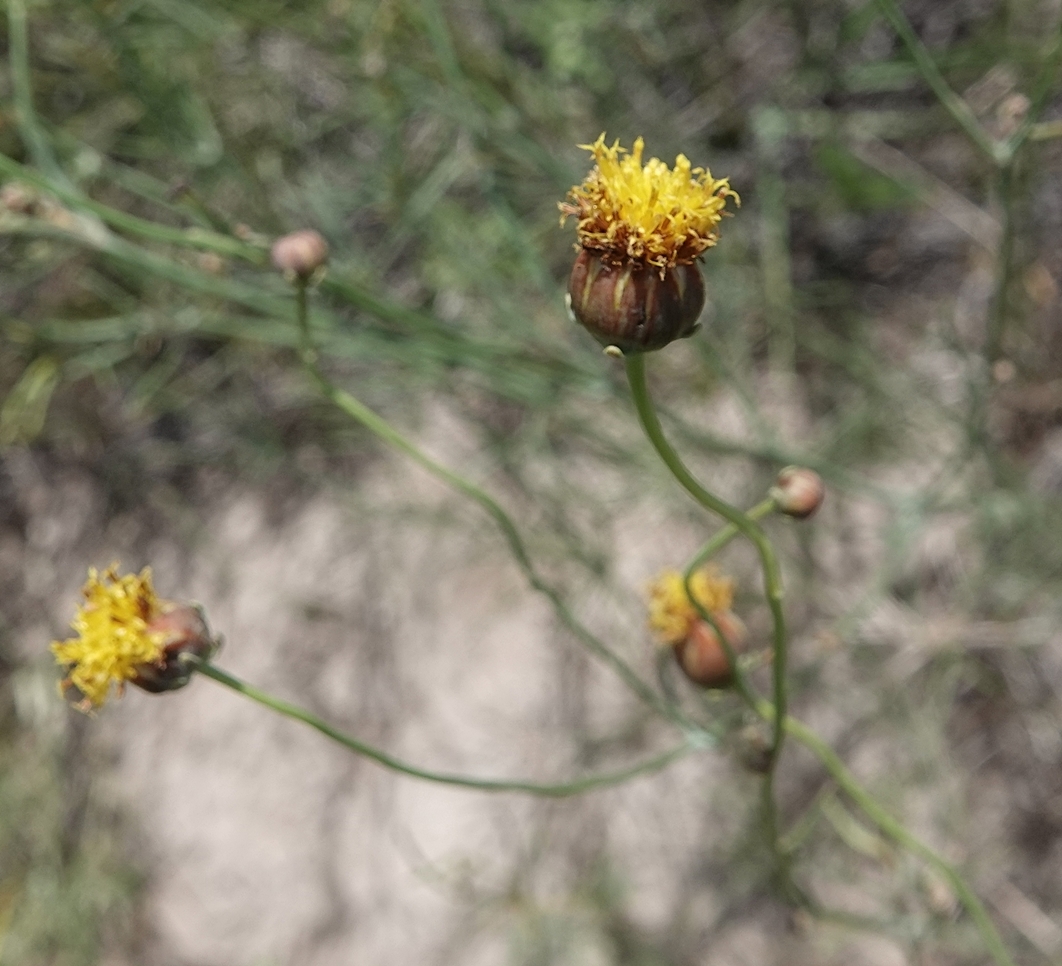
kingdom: Plantae
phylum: Tracheophyta
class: Magnoliopsida
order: Asterales
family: Asteraceae
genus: Thelesperma
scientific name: Thelesperma megapotamicum
